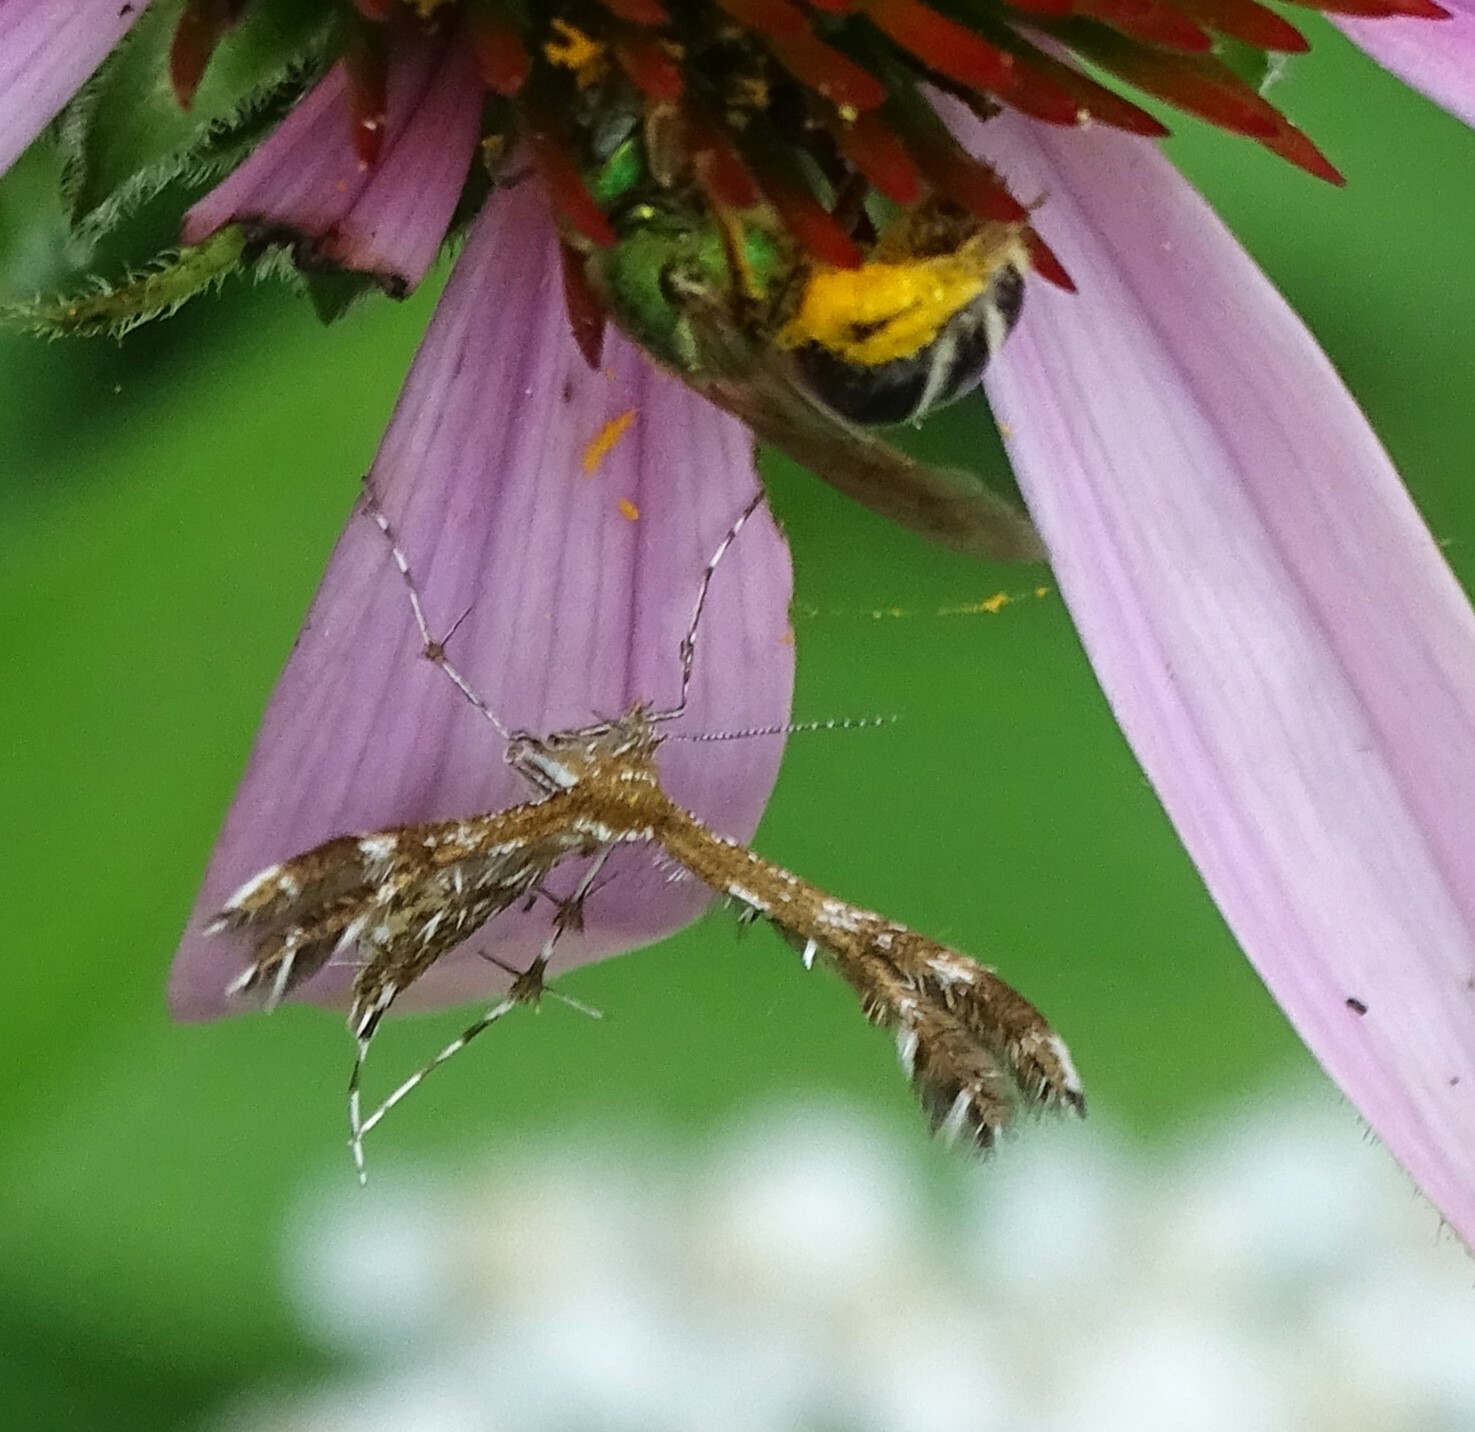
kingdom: Animalia
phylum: Arthropoda
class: Insecta
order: Lepidoptera
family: Pterophoridae
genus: Dejongia
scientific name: Dejongia lobidactylus
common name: Lobed plume moth
